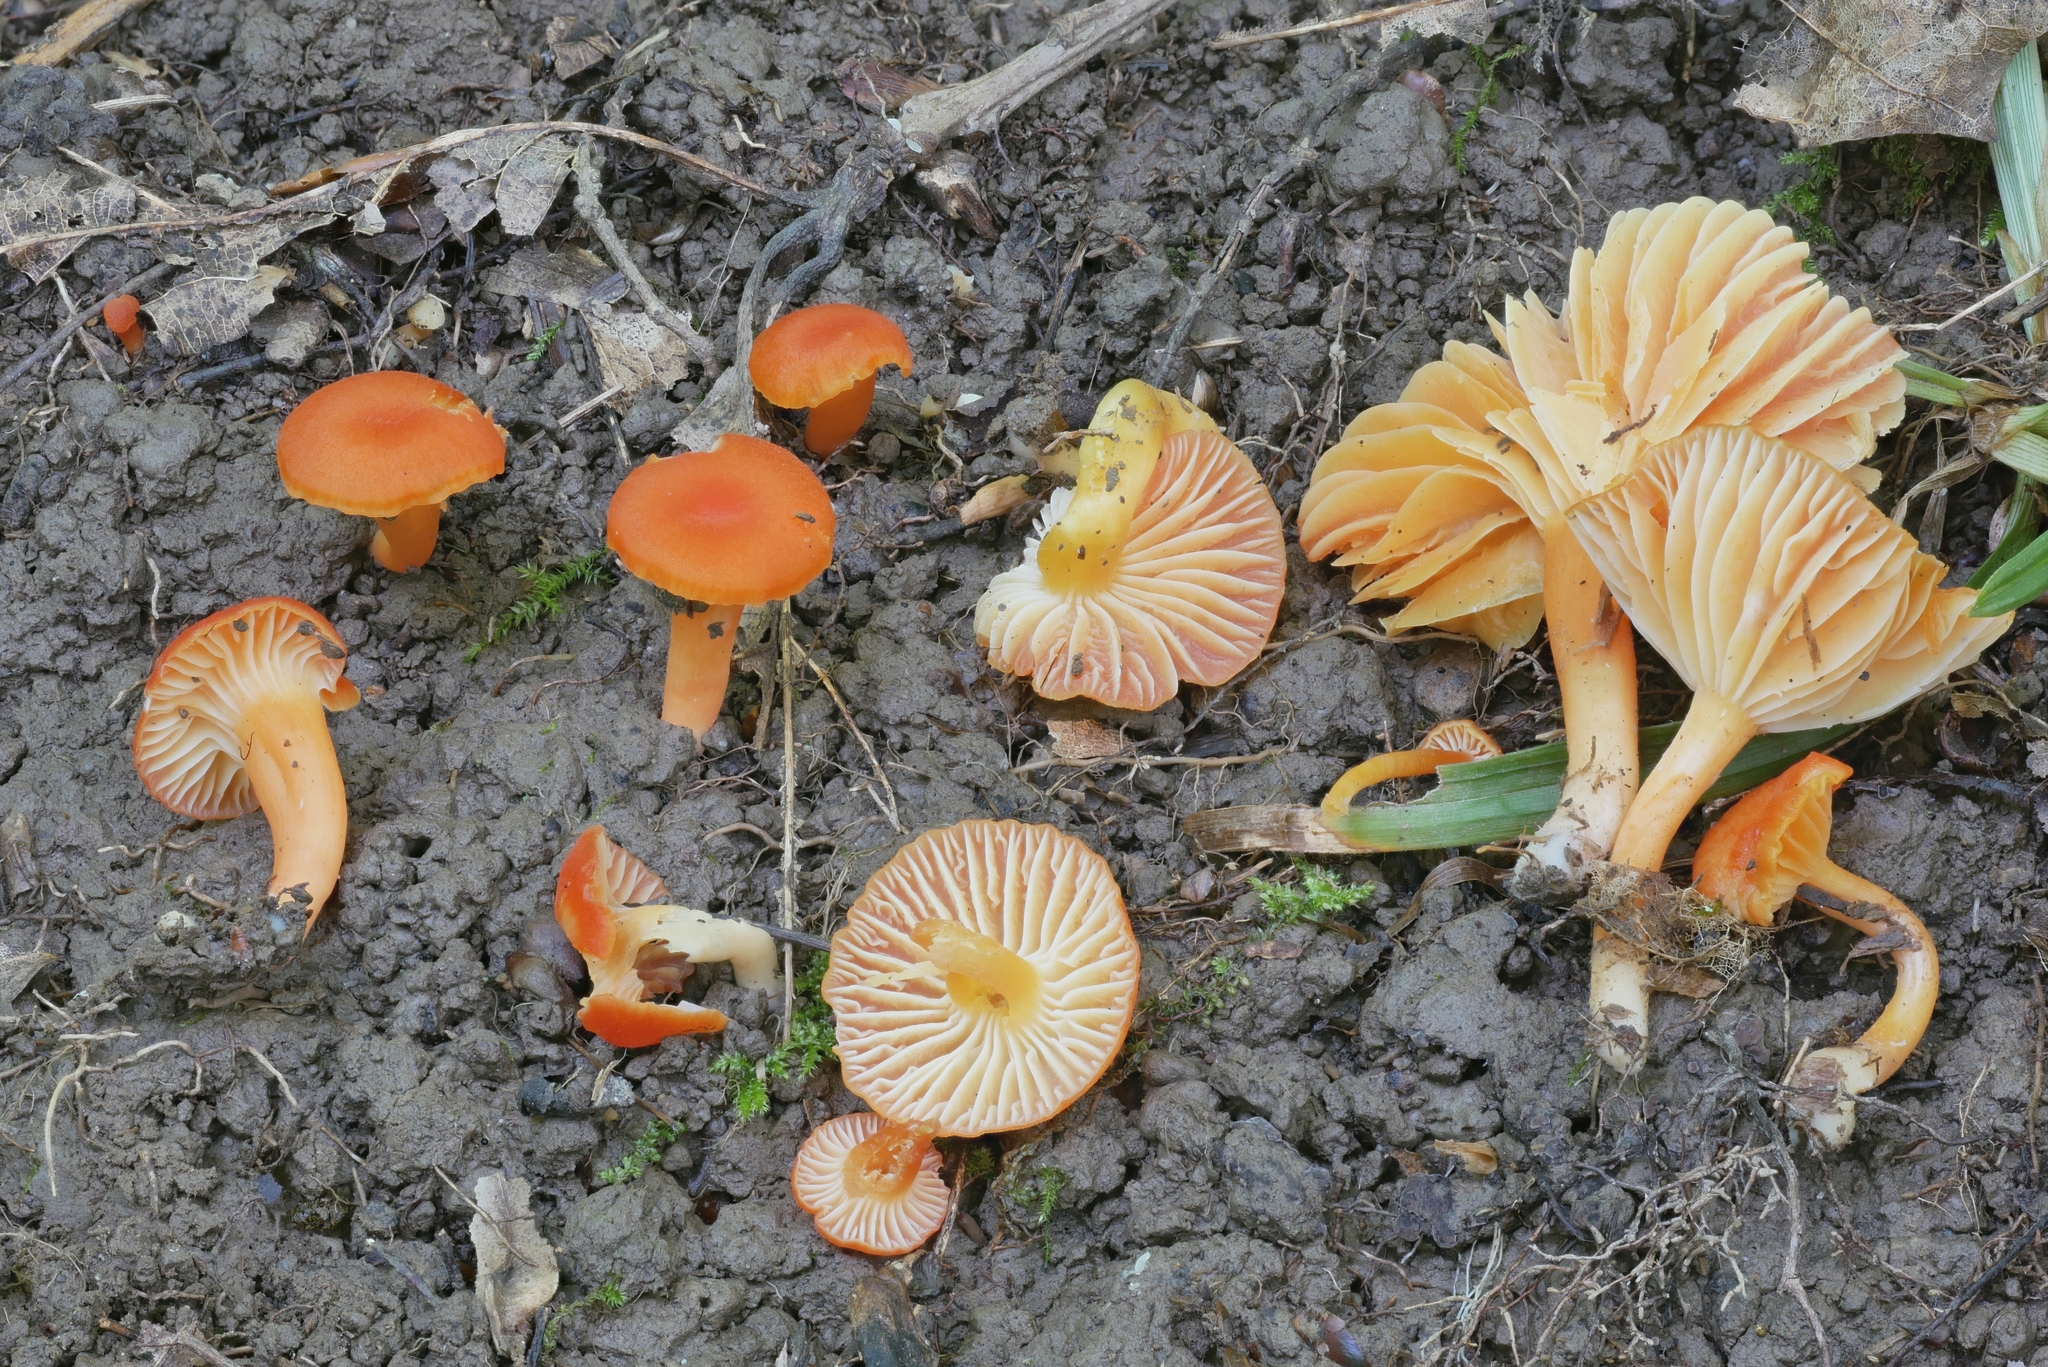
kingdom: Fungi
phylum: Basidiomycota
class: Agaricomycetes
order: Agaricales
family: Hygrophoraceae
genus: Hygrocybe
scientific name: Hygrocybe reidii
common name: Honey waxcap
